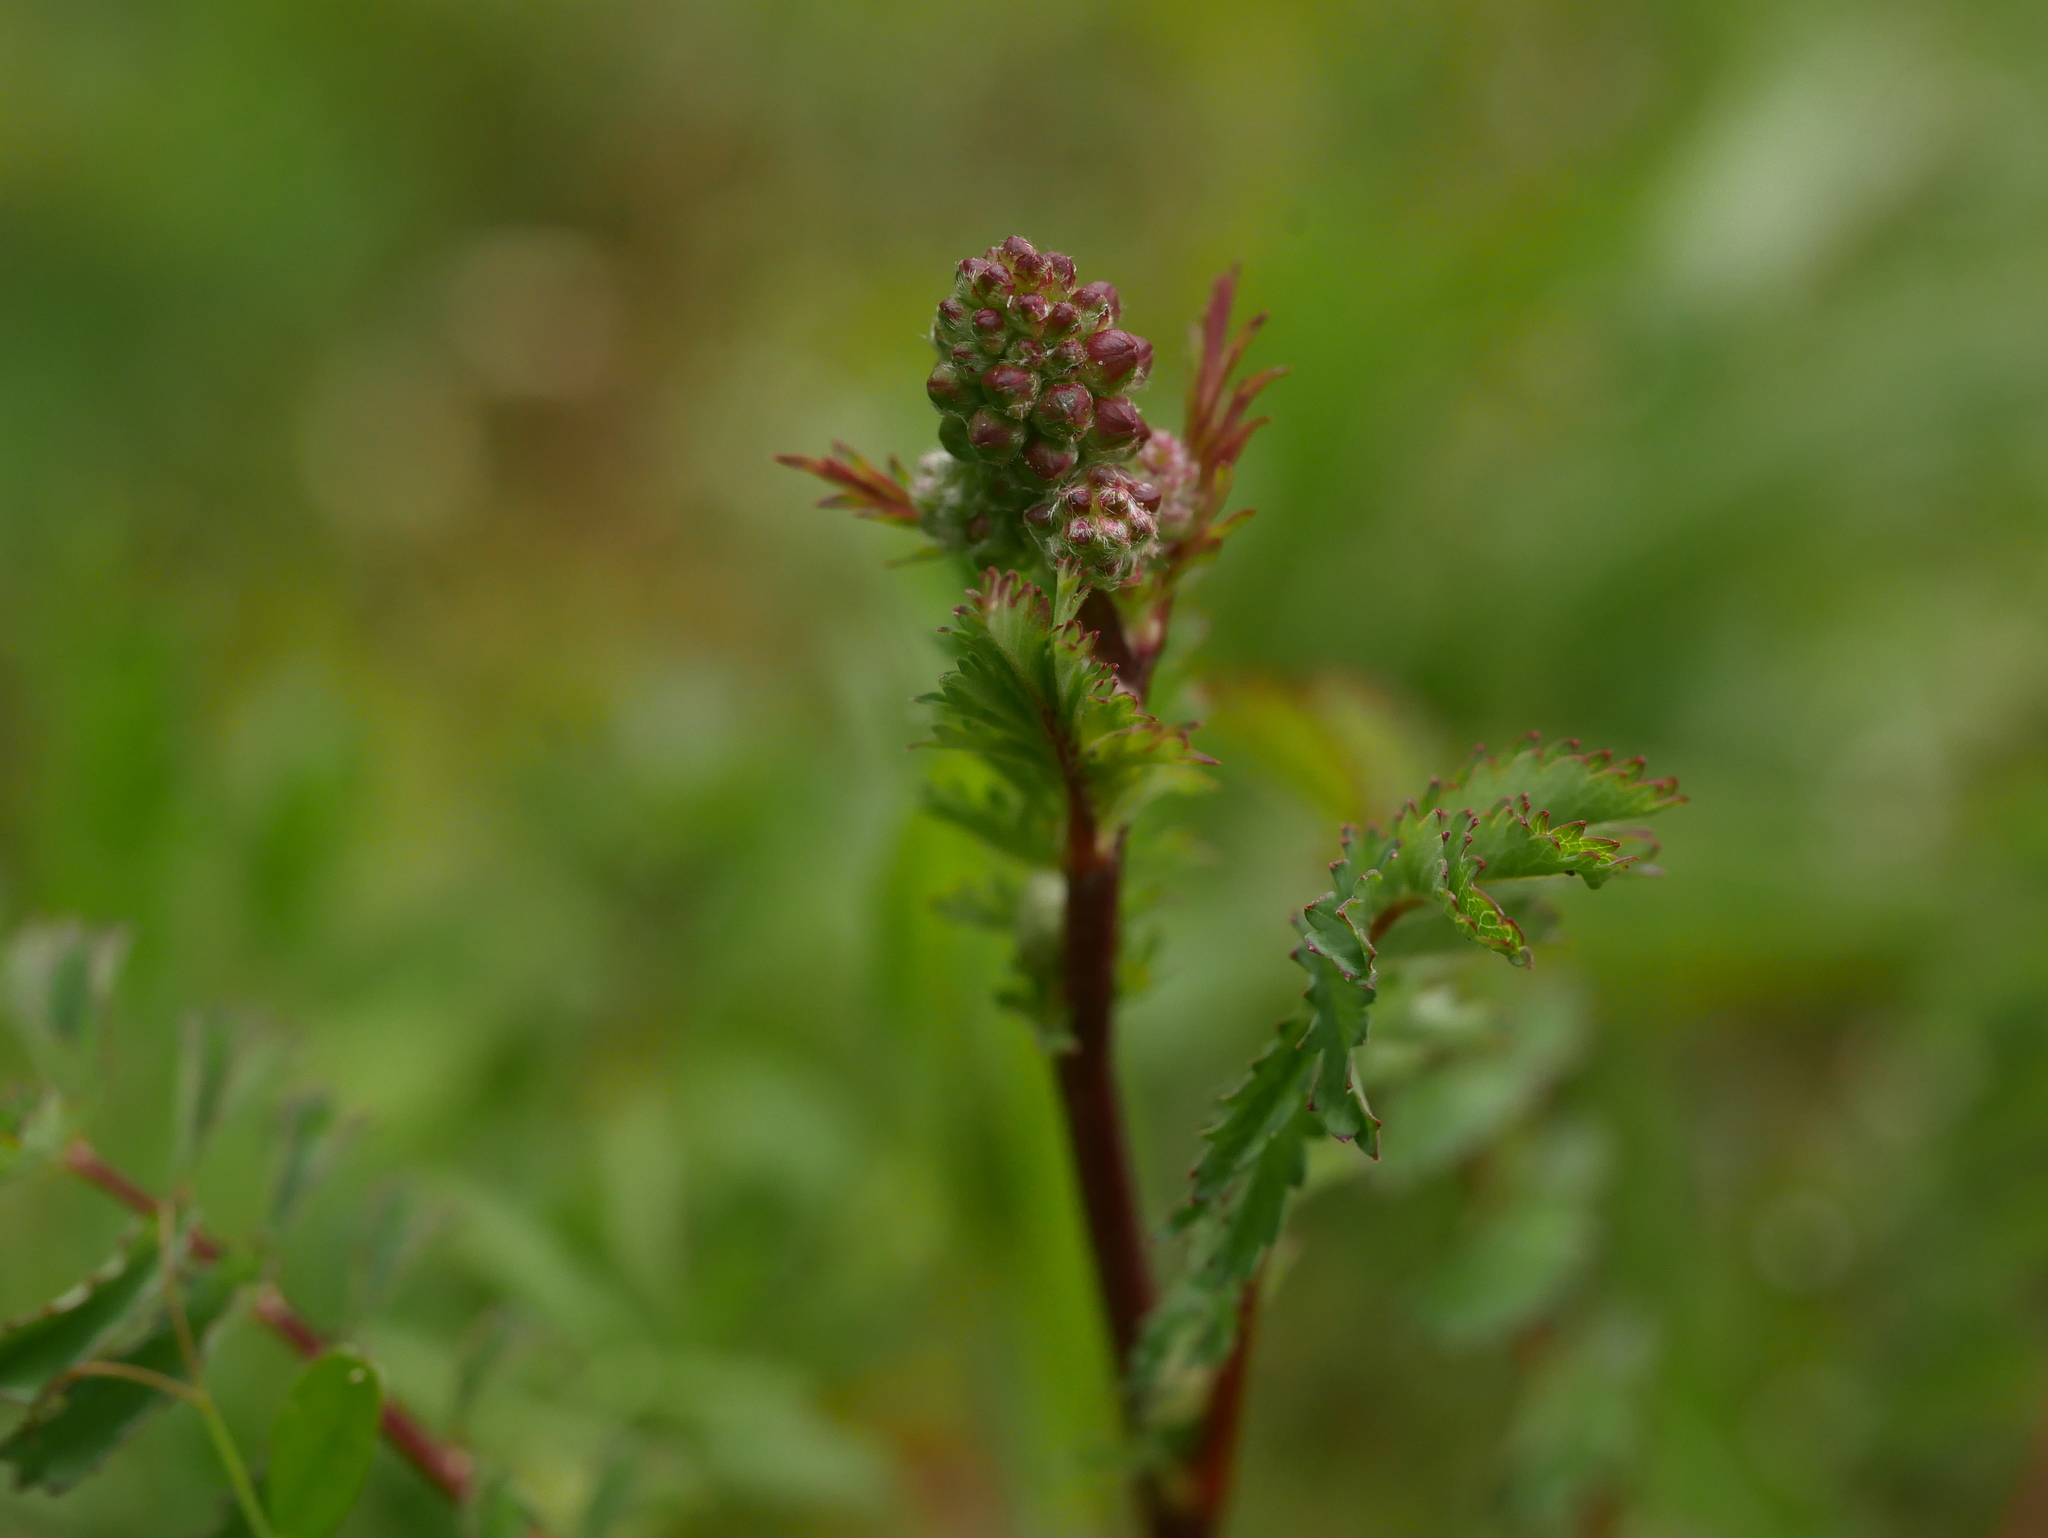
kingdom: Plantae
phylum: Tracheophyta
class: Magnoliopsida
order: Rosales
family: Rosaceae
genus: Poterium
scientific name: Poterium sanguisorba
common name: Salad burnet
